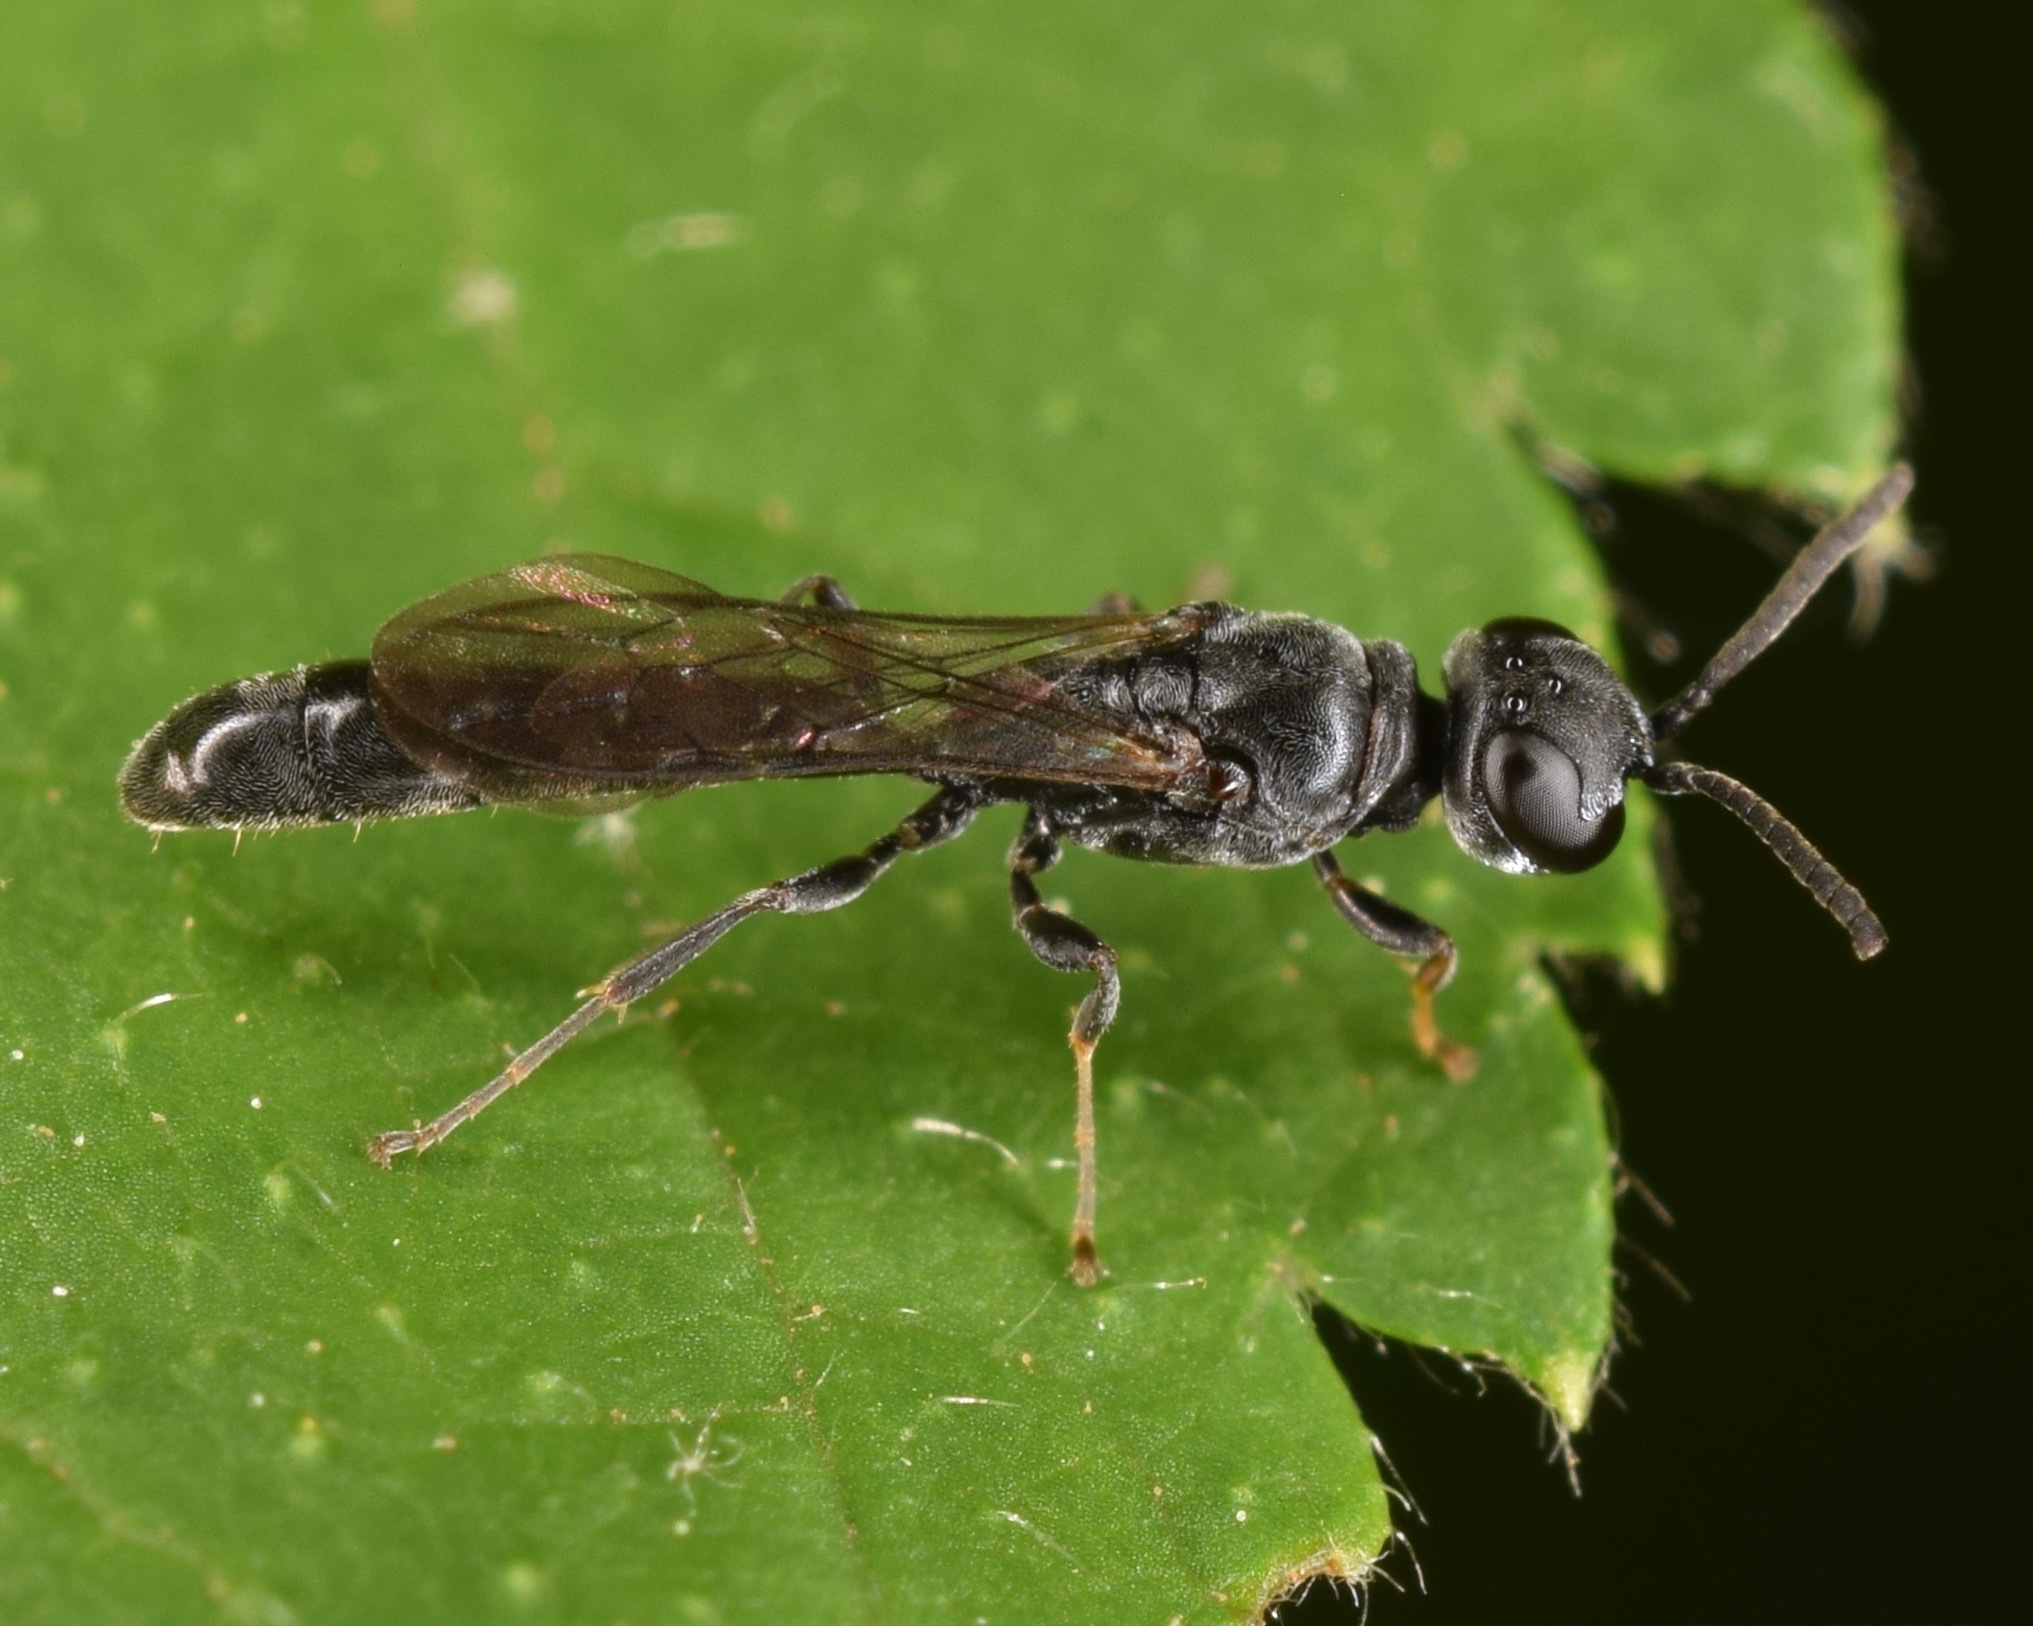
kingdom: Animalia
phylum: Arthropoda
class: Insecta
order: Hymenoptera
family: Crabronidae
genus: Trypoxylon
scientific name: Trypoxylon
